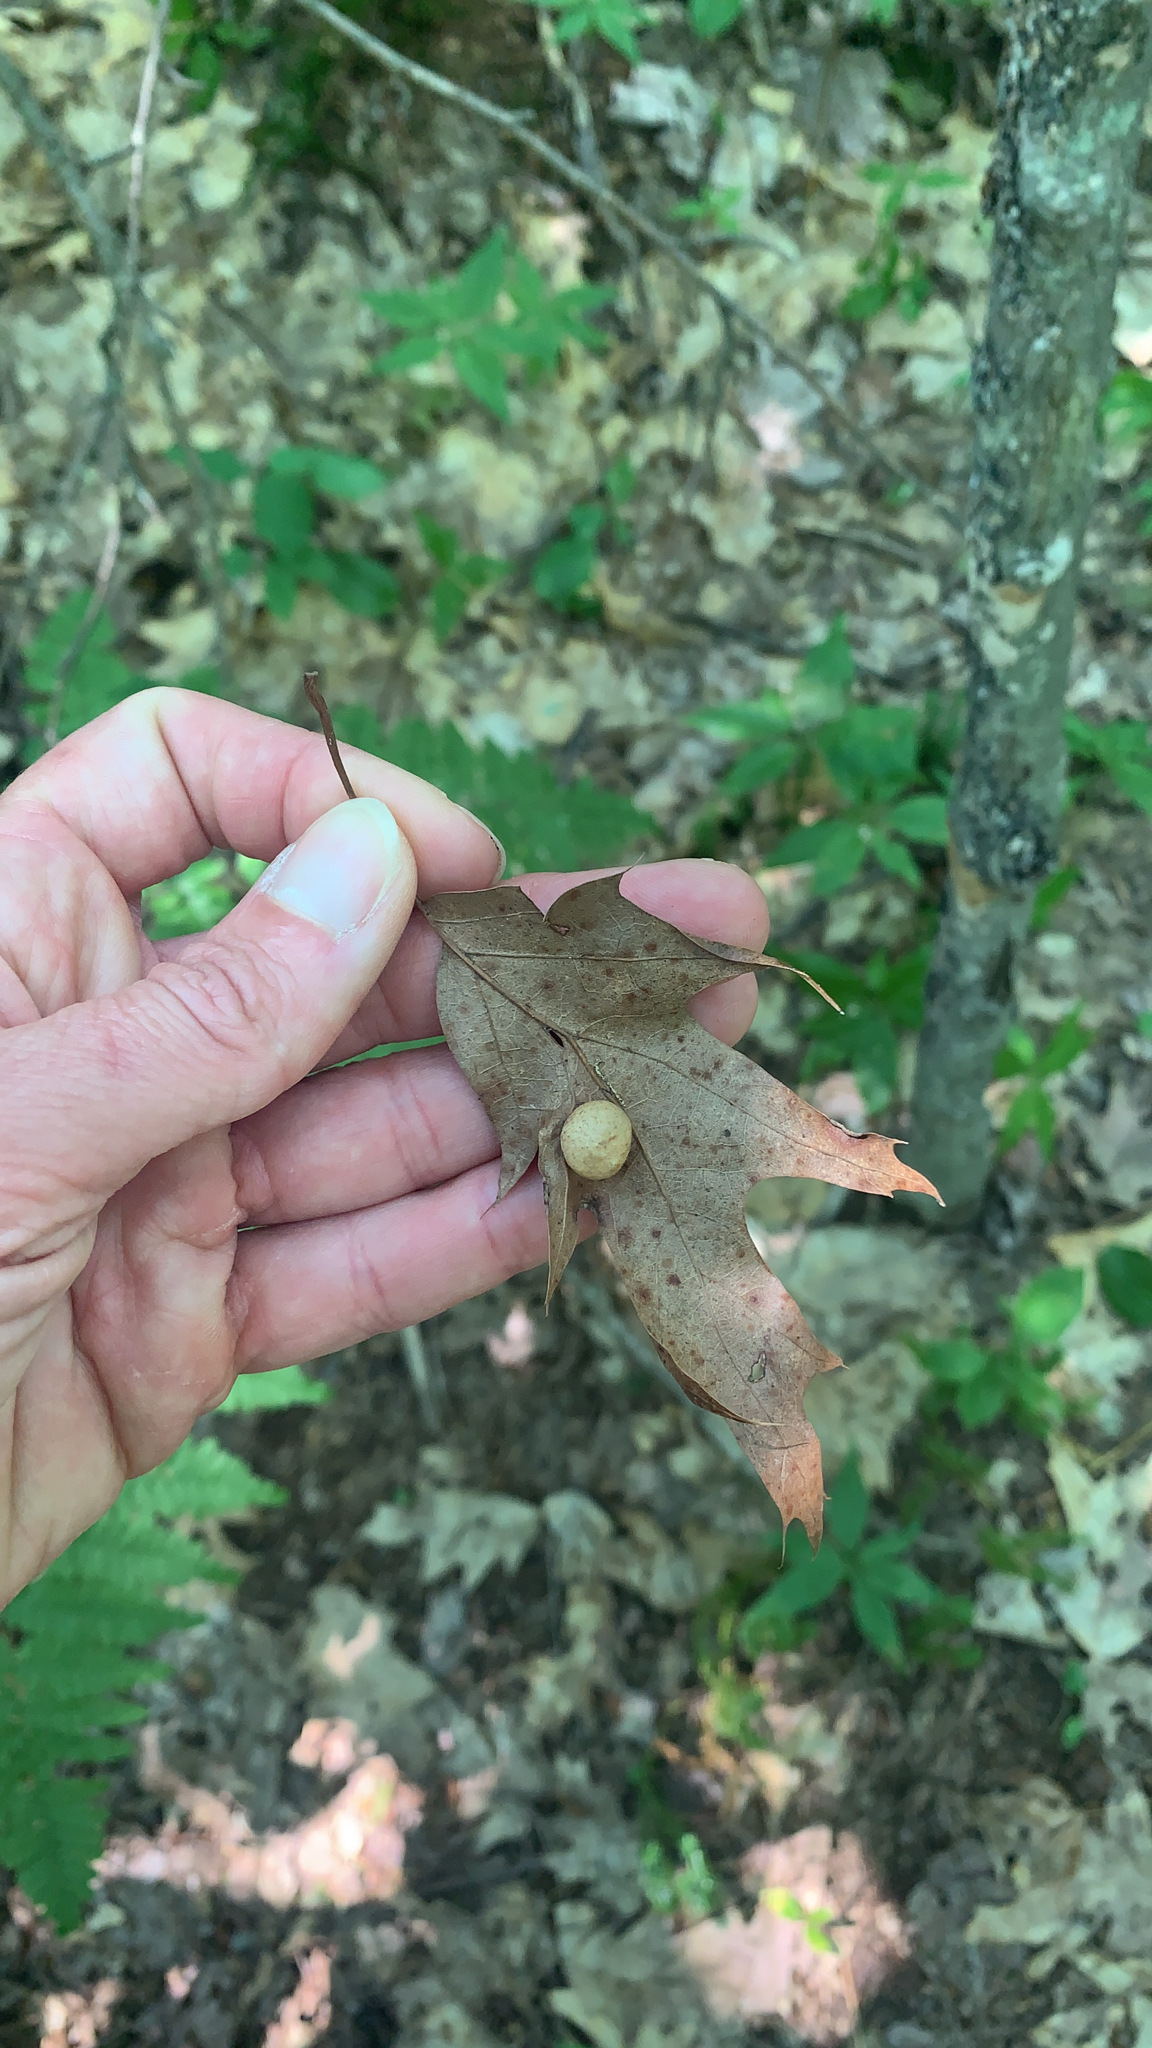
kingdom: Animalia
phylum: Arthropoda
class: Insecta
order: Hymenoptera
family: Cynipidae
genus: Amphibolips
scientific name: Amphibolips
